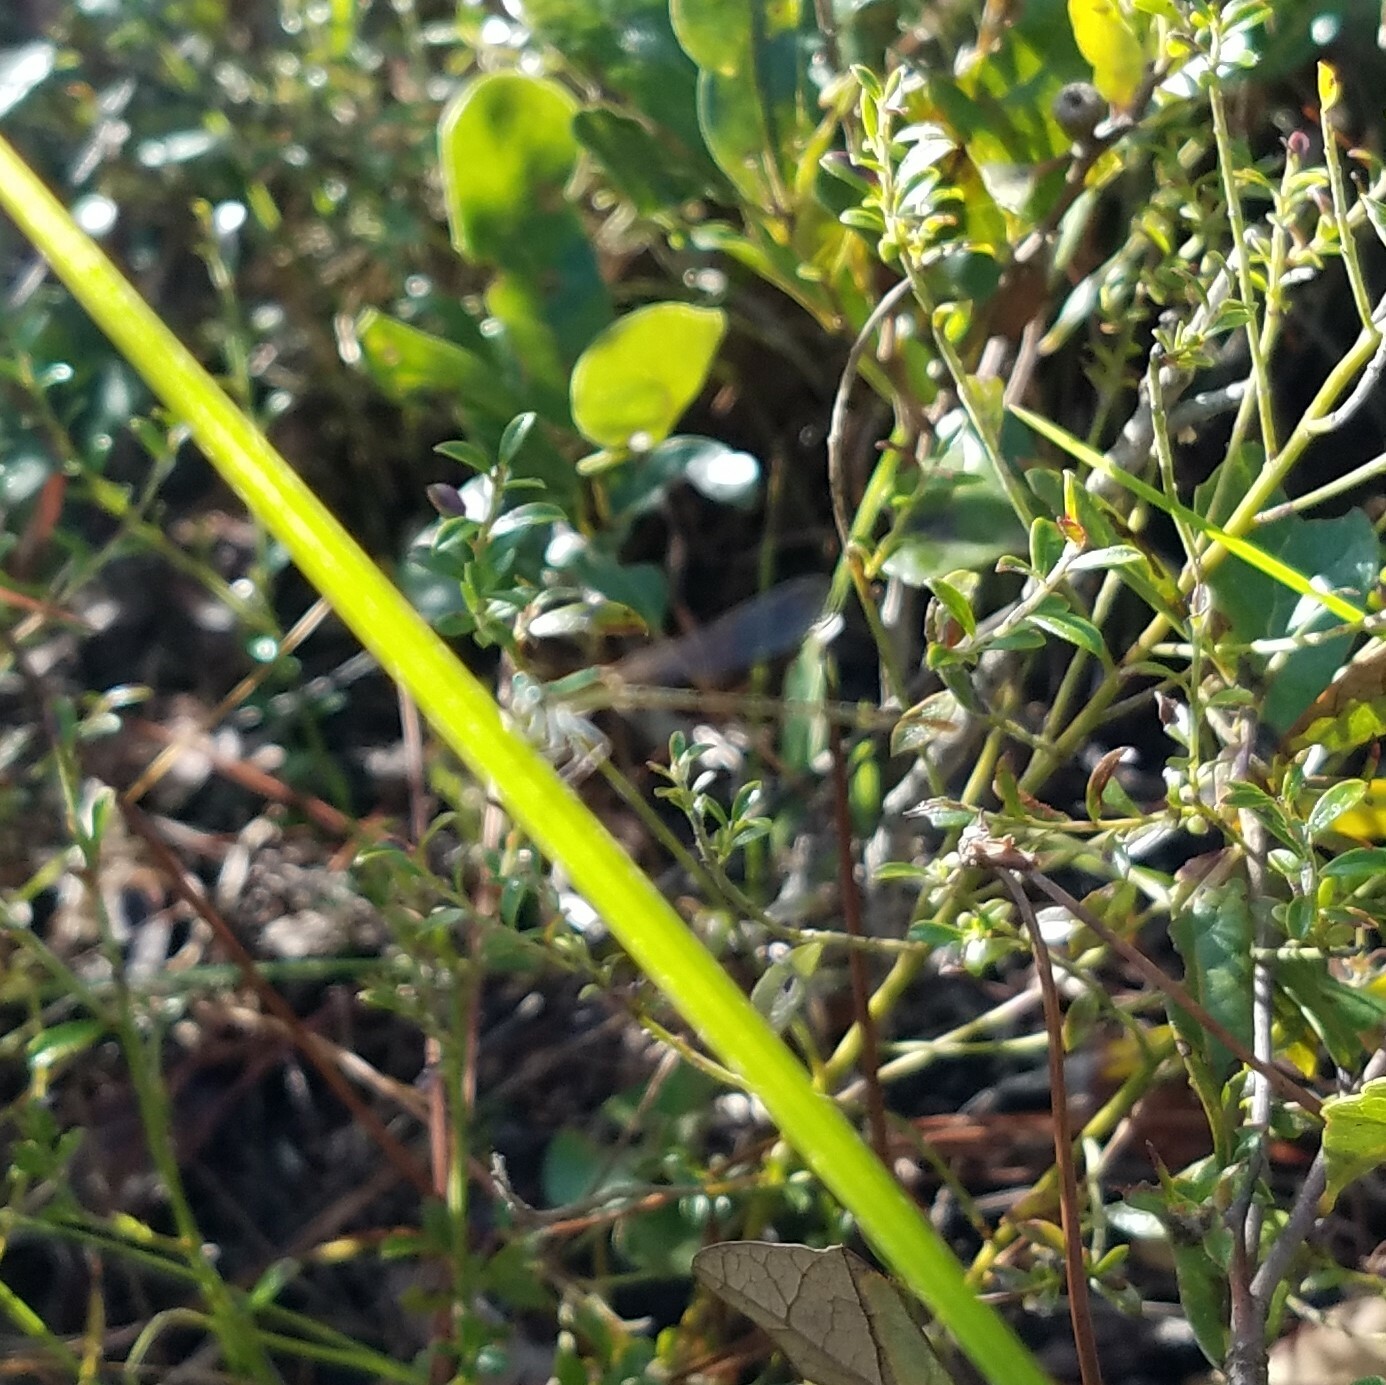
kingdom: Animalia
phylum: Arthropoda
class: Insecta
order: Odonata
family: Coenagrionidae
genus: Nehalennia
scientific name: Nehalennia integricollis
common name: Southern sprite
